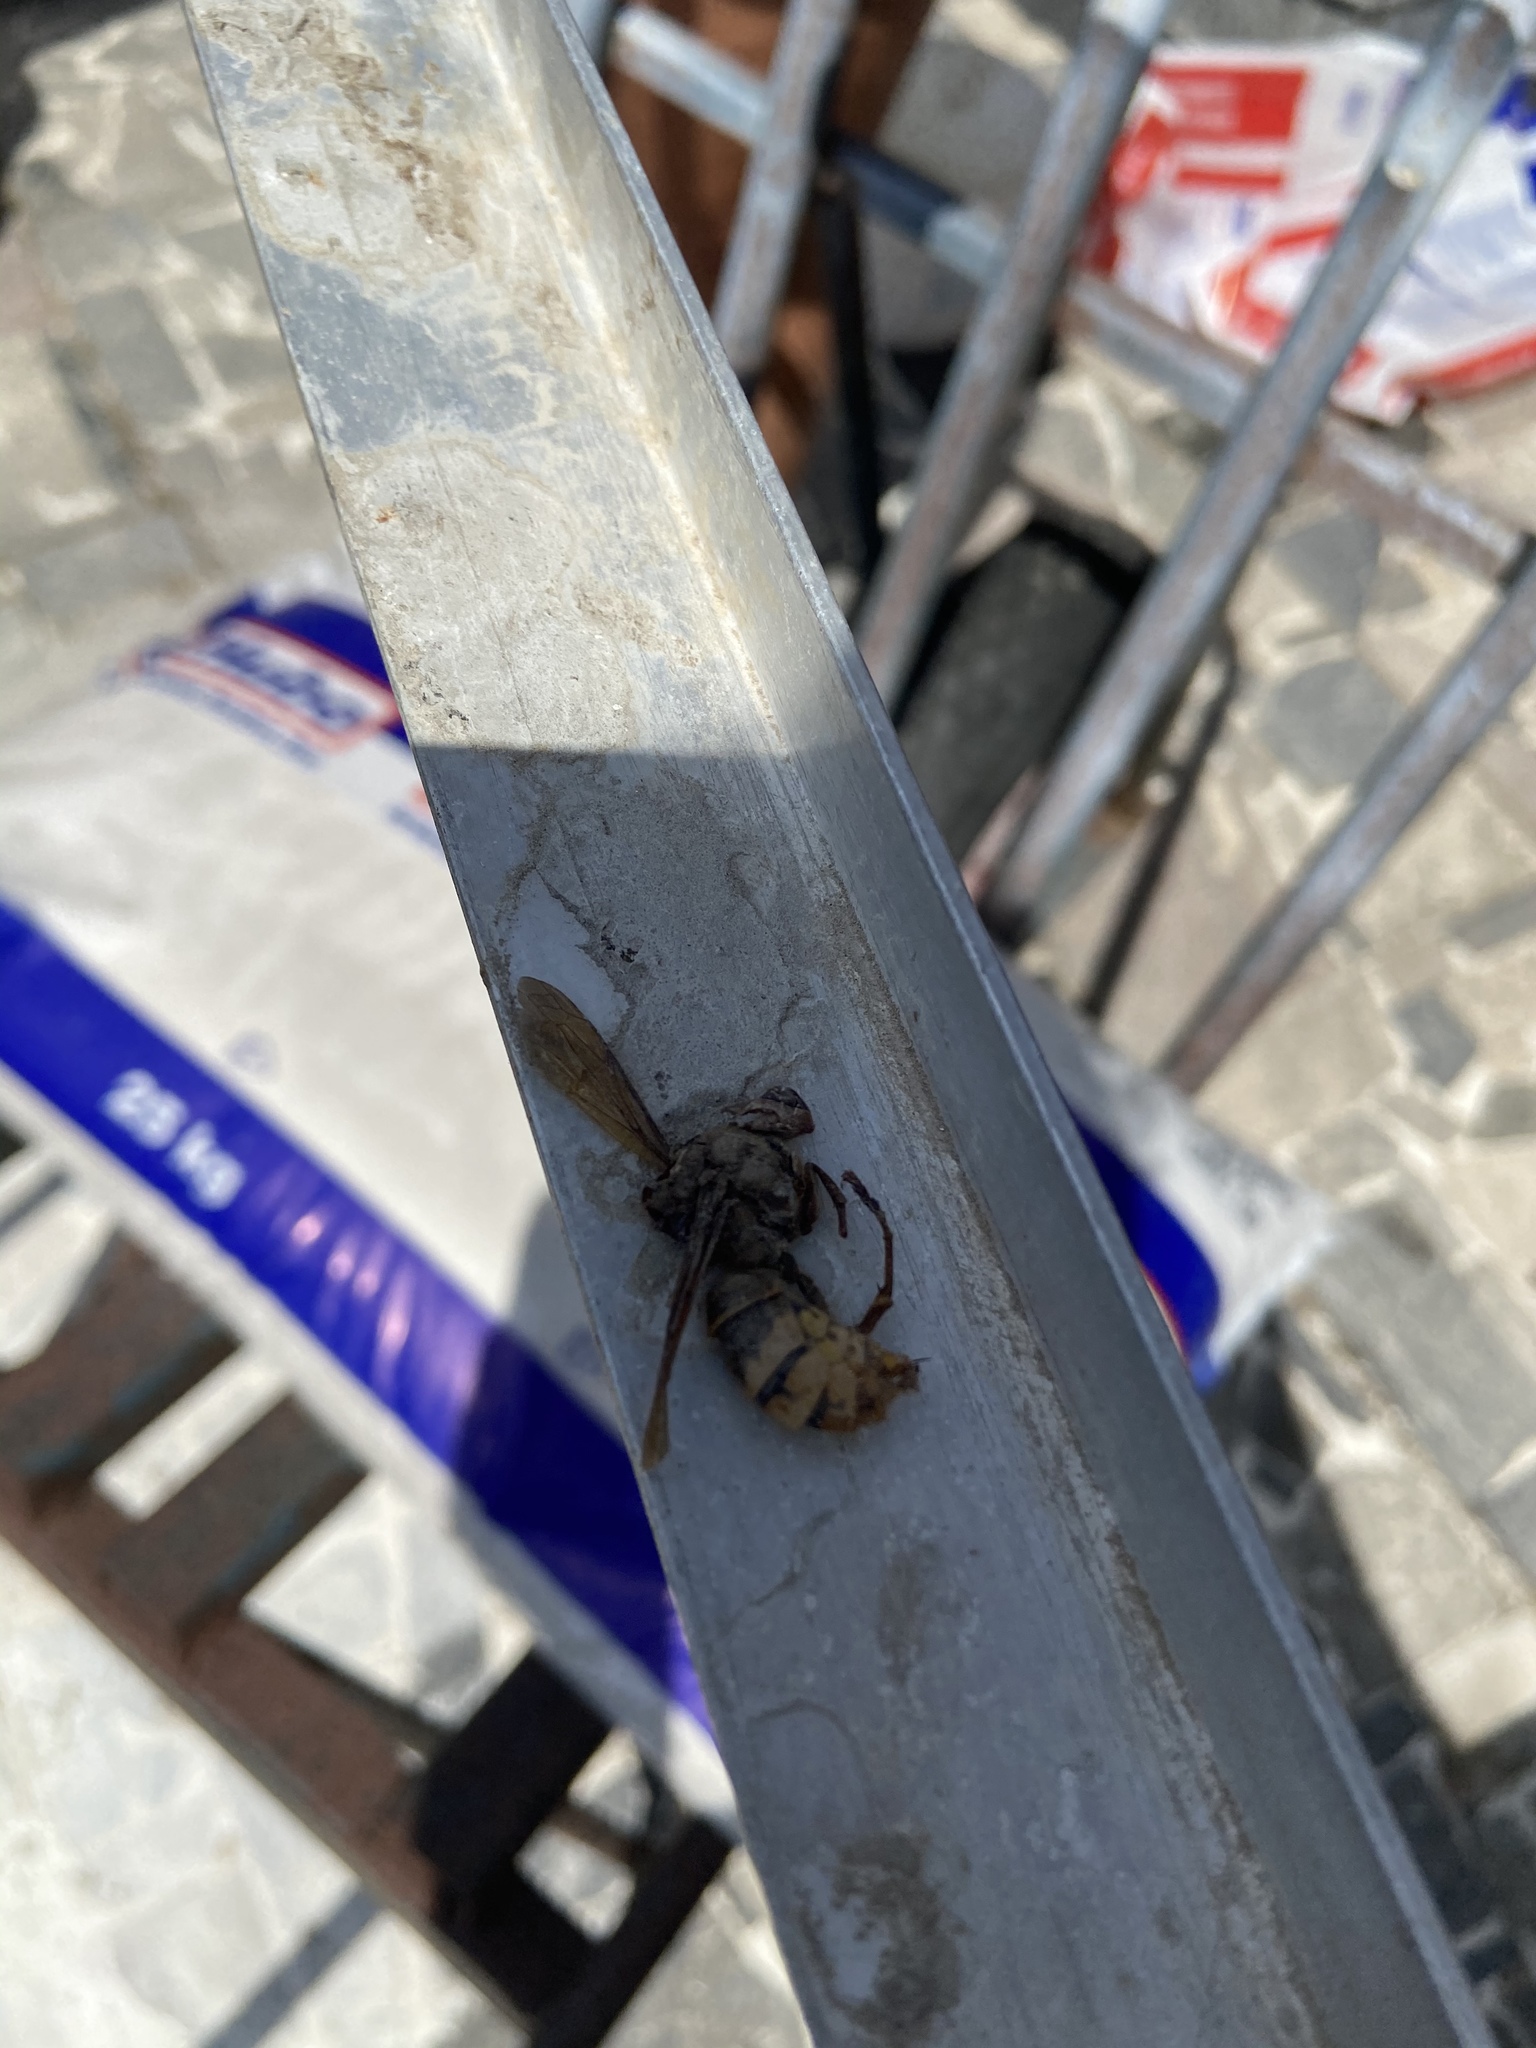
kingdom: Animalia
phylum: Arthropoda
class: Insecta
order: Hymenoptera
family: Vespidae
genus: Vespa
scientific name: Vespa crabro
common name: Hornet
